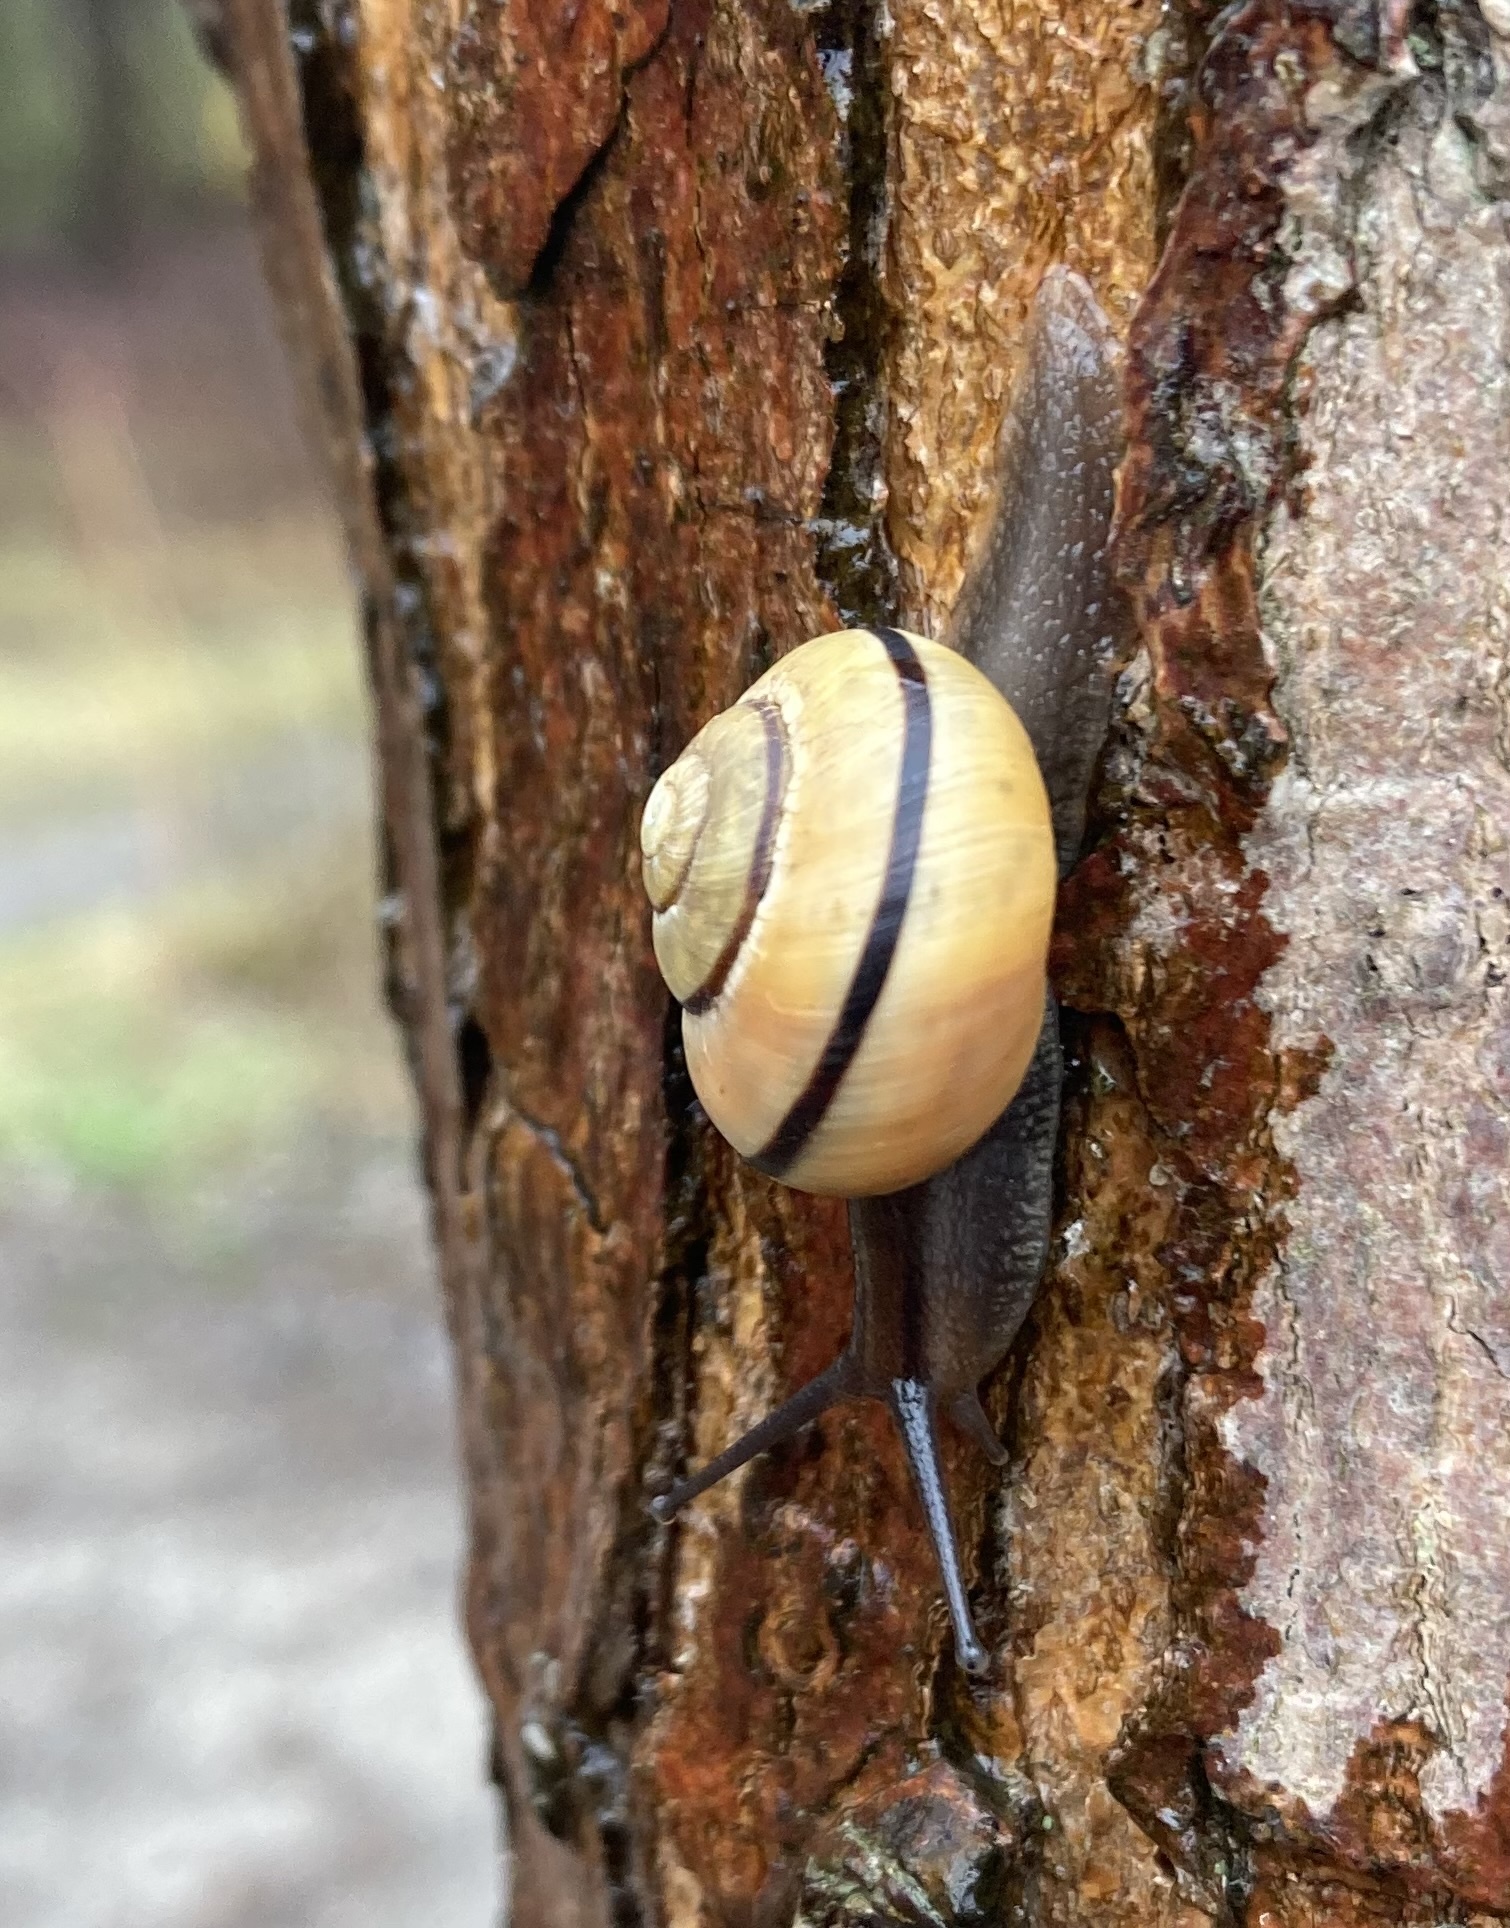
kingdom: Animalia
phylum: Mollusca
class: Gastropoda
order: Stylommatophora
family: Helicidae
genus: Cepaea
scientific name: Cepaea nemoralis
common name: Grovesnail
